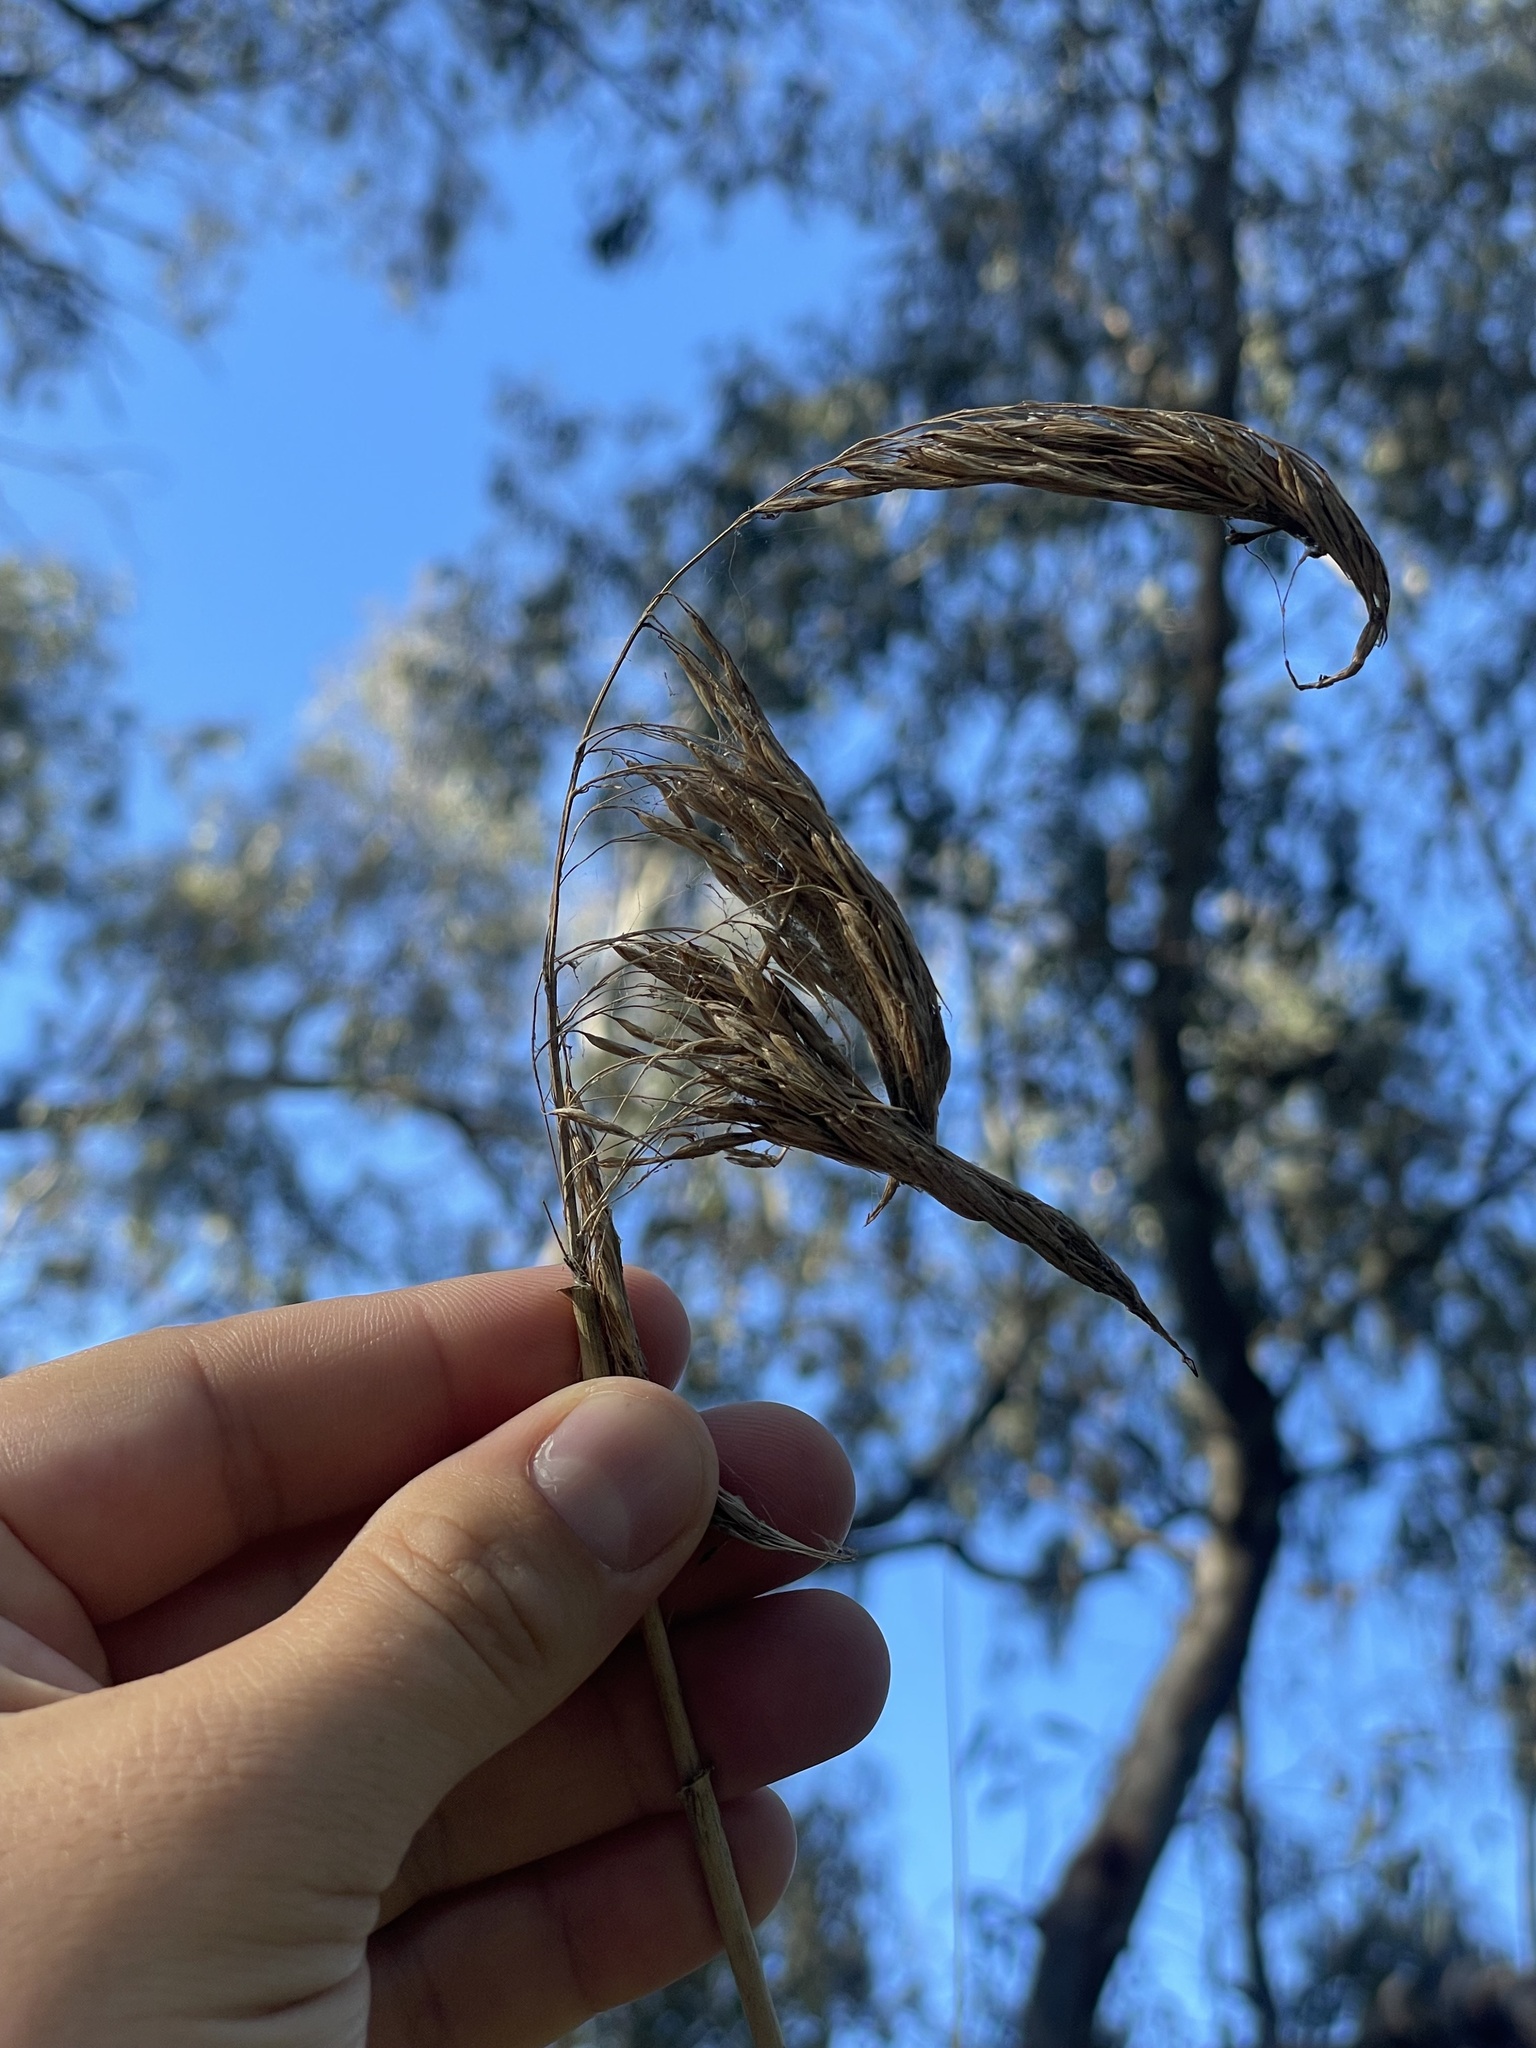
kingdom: Plantae
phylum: Tracheophyta
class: Liliopsida
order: Poales
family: Poaceae
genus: Phragmites
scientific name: Phragmites australis
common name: Common reed
